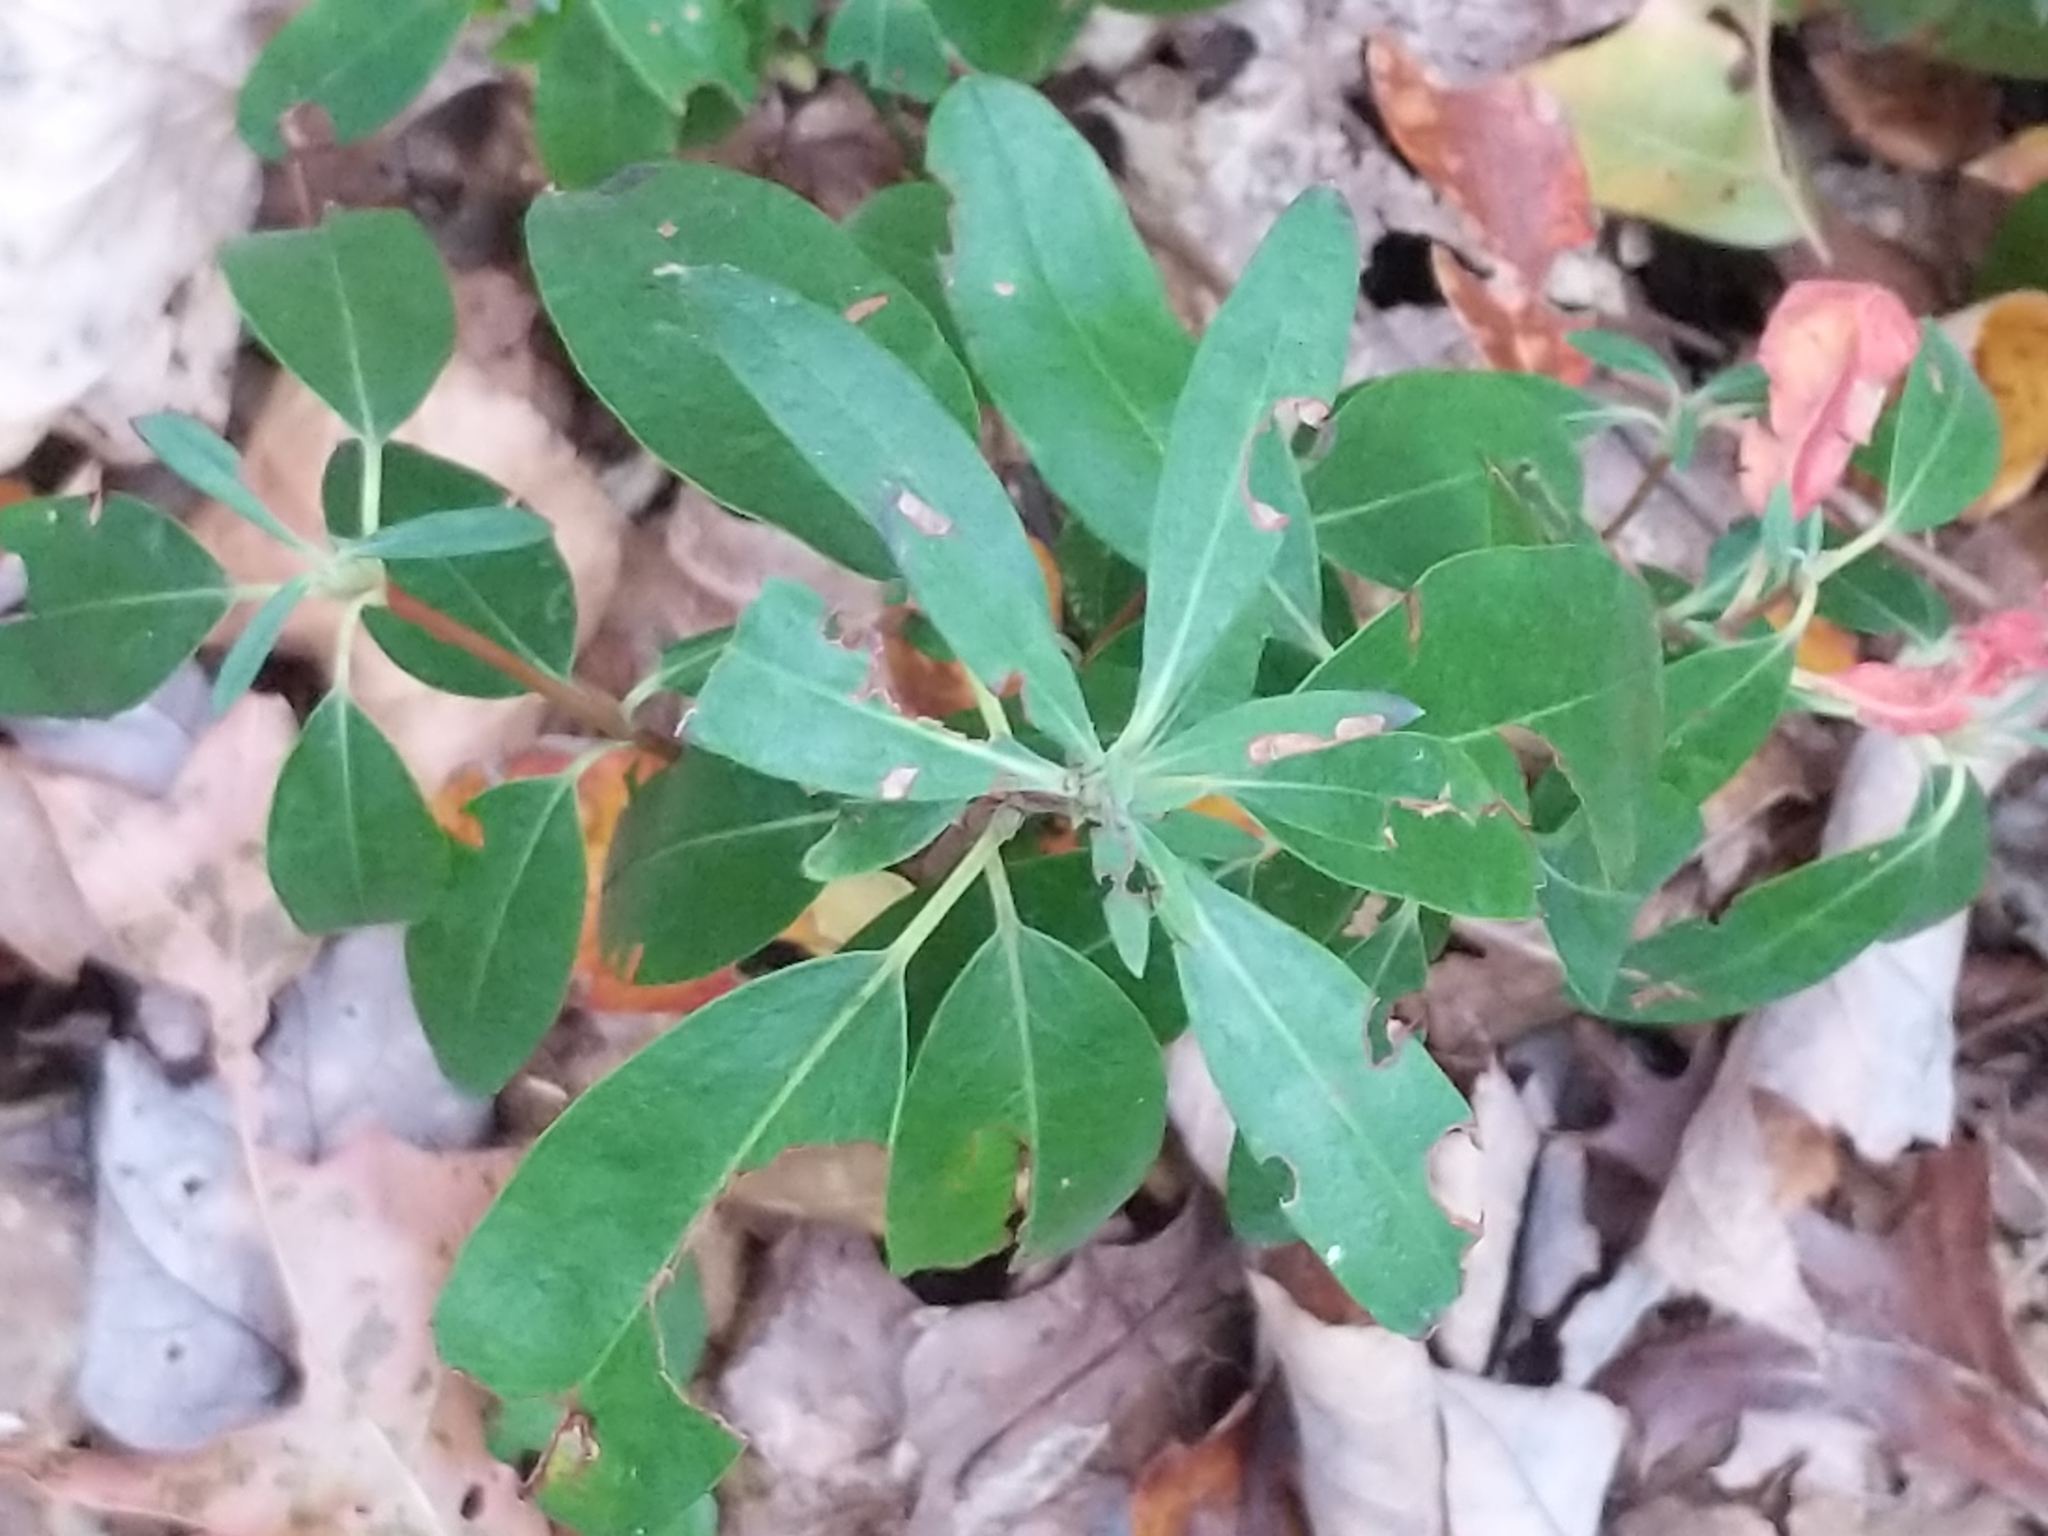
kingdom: Plantae
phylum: Tracheophyta
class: Magnoliopsida
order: Ericales
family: Ericaceae
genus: Kalmia
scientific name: Kalmia angustifolia
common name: Sheep-laurel
